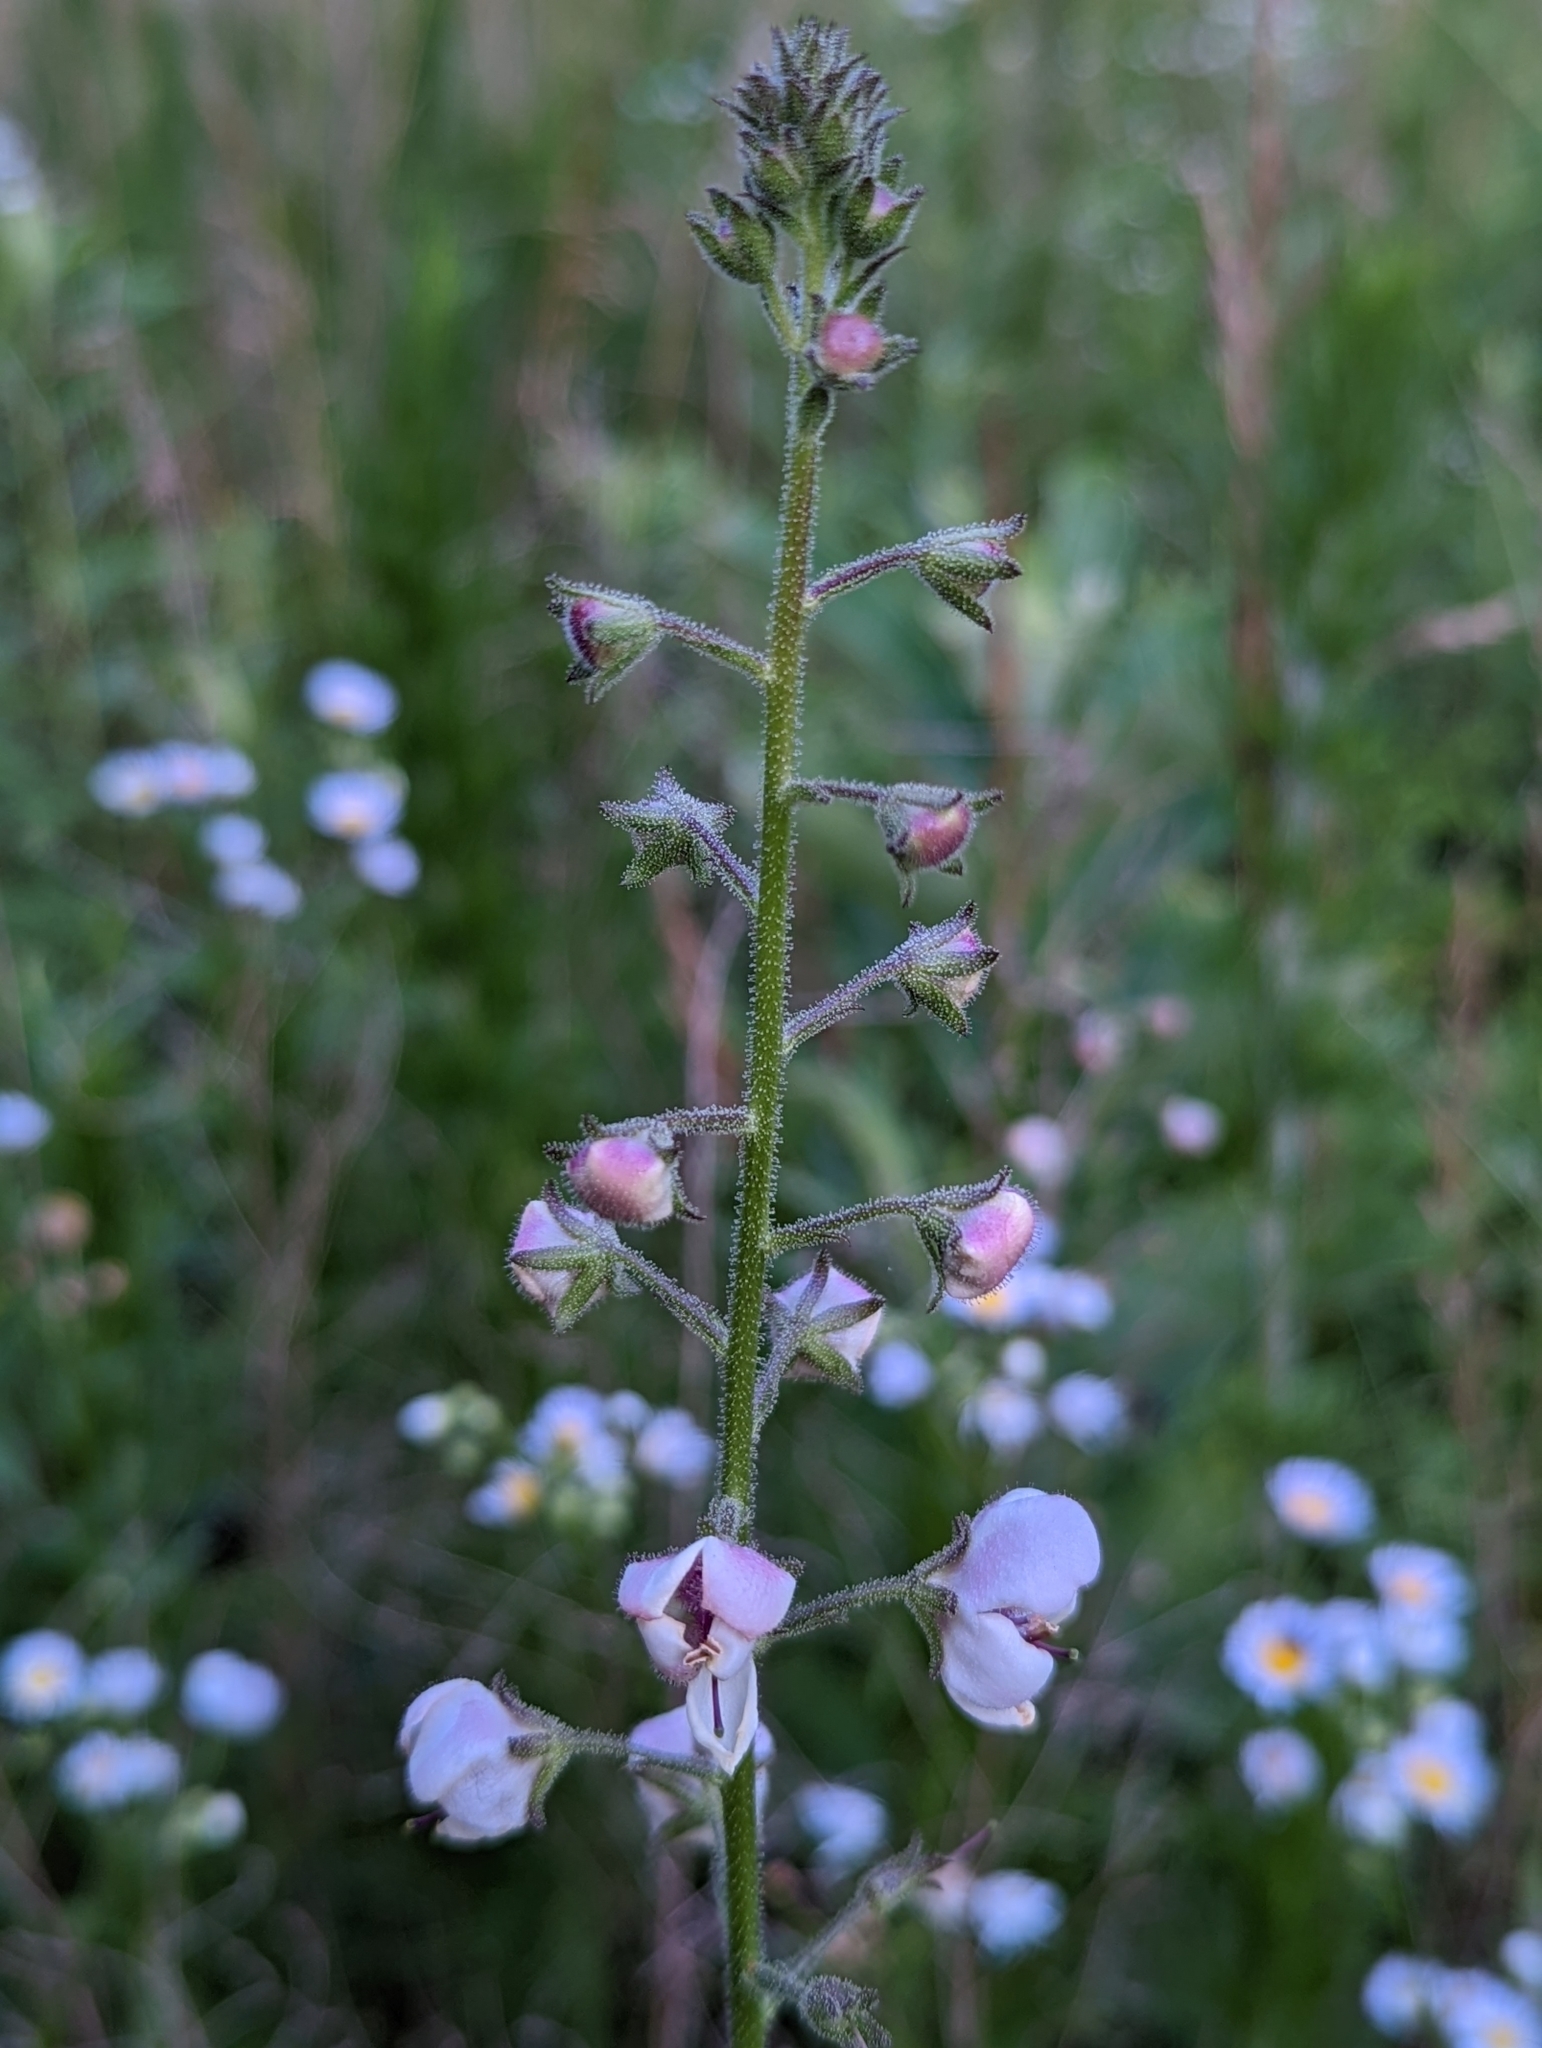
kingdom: Plantae
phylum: Tracheophyta
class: Magnoliopsida
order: Lamiales
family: Scrophulariaceae
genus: Verbascum
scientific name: Verbascum blattaria
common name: Moth mullein
